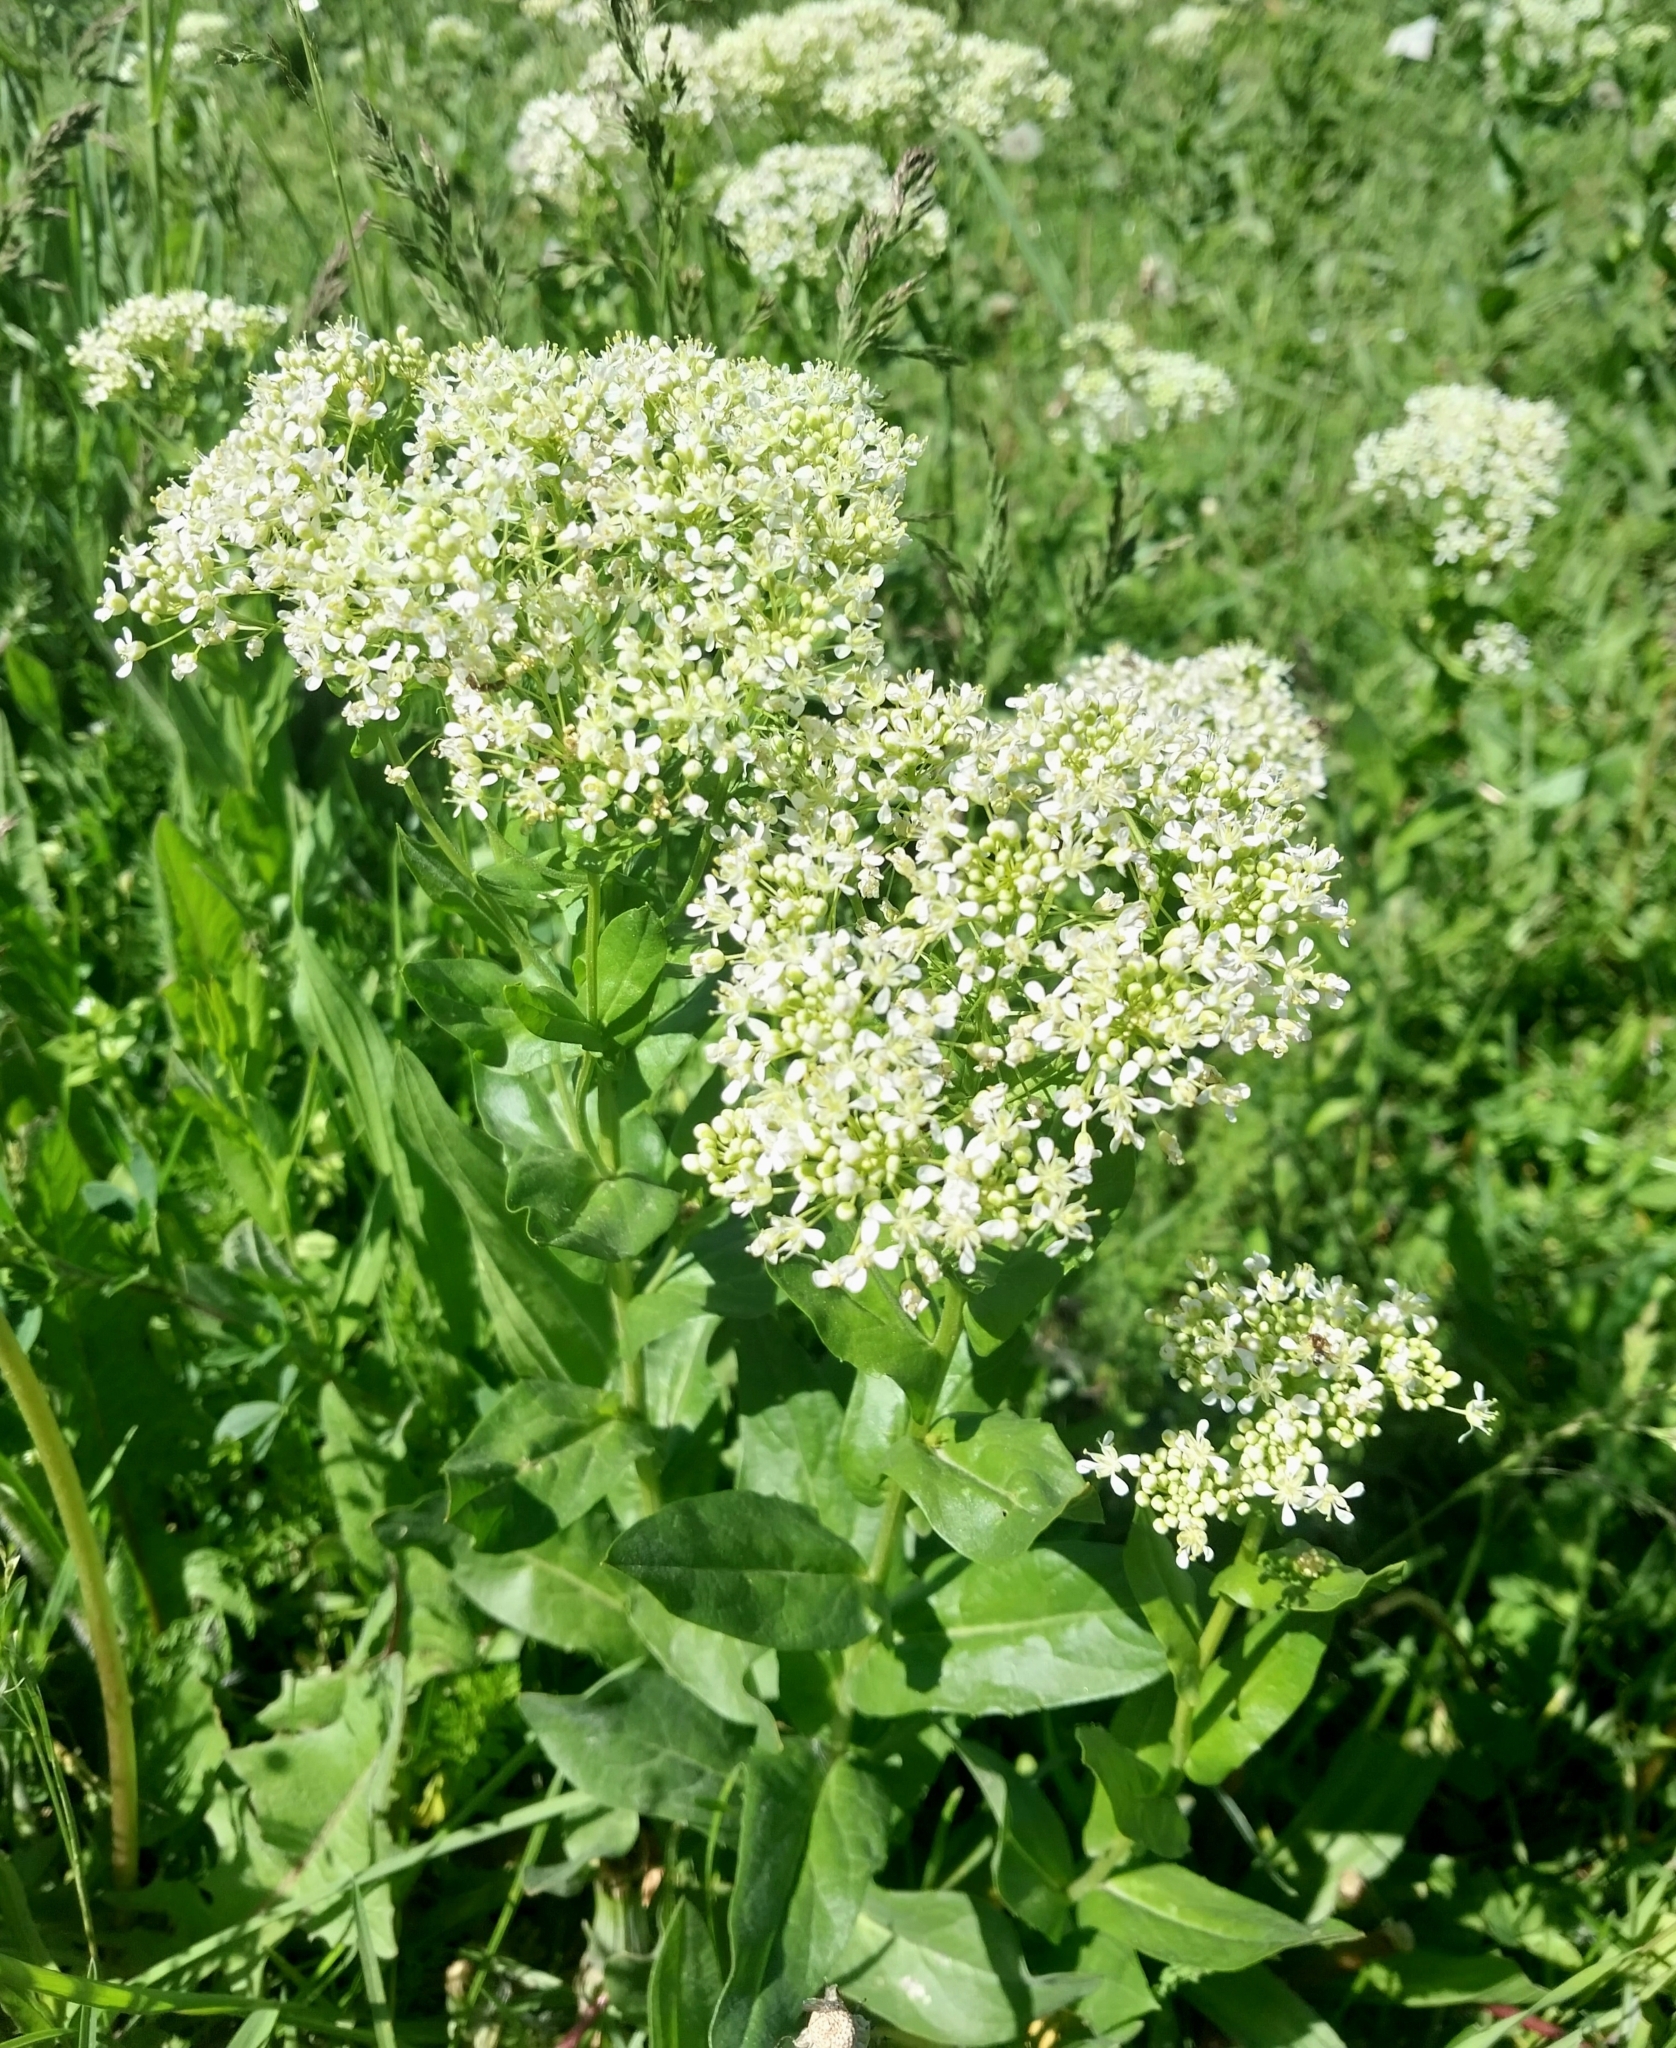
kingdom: Plantae
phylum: Tracheophyta
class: Magnoliopsida
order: Brassicales
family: Brassicaceae
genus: Lepidium
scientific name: Lepidium draba
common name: Hoary cress
